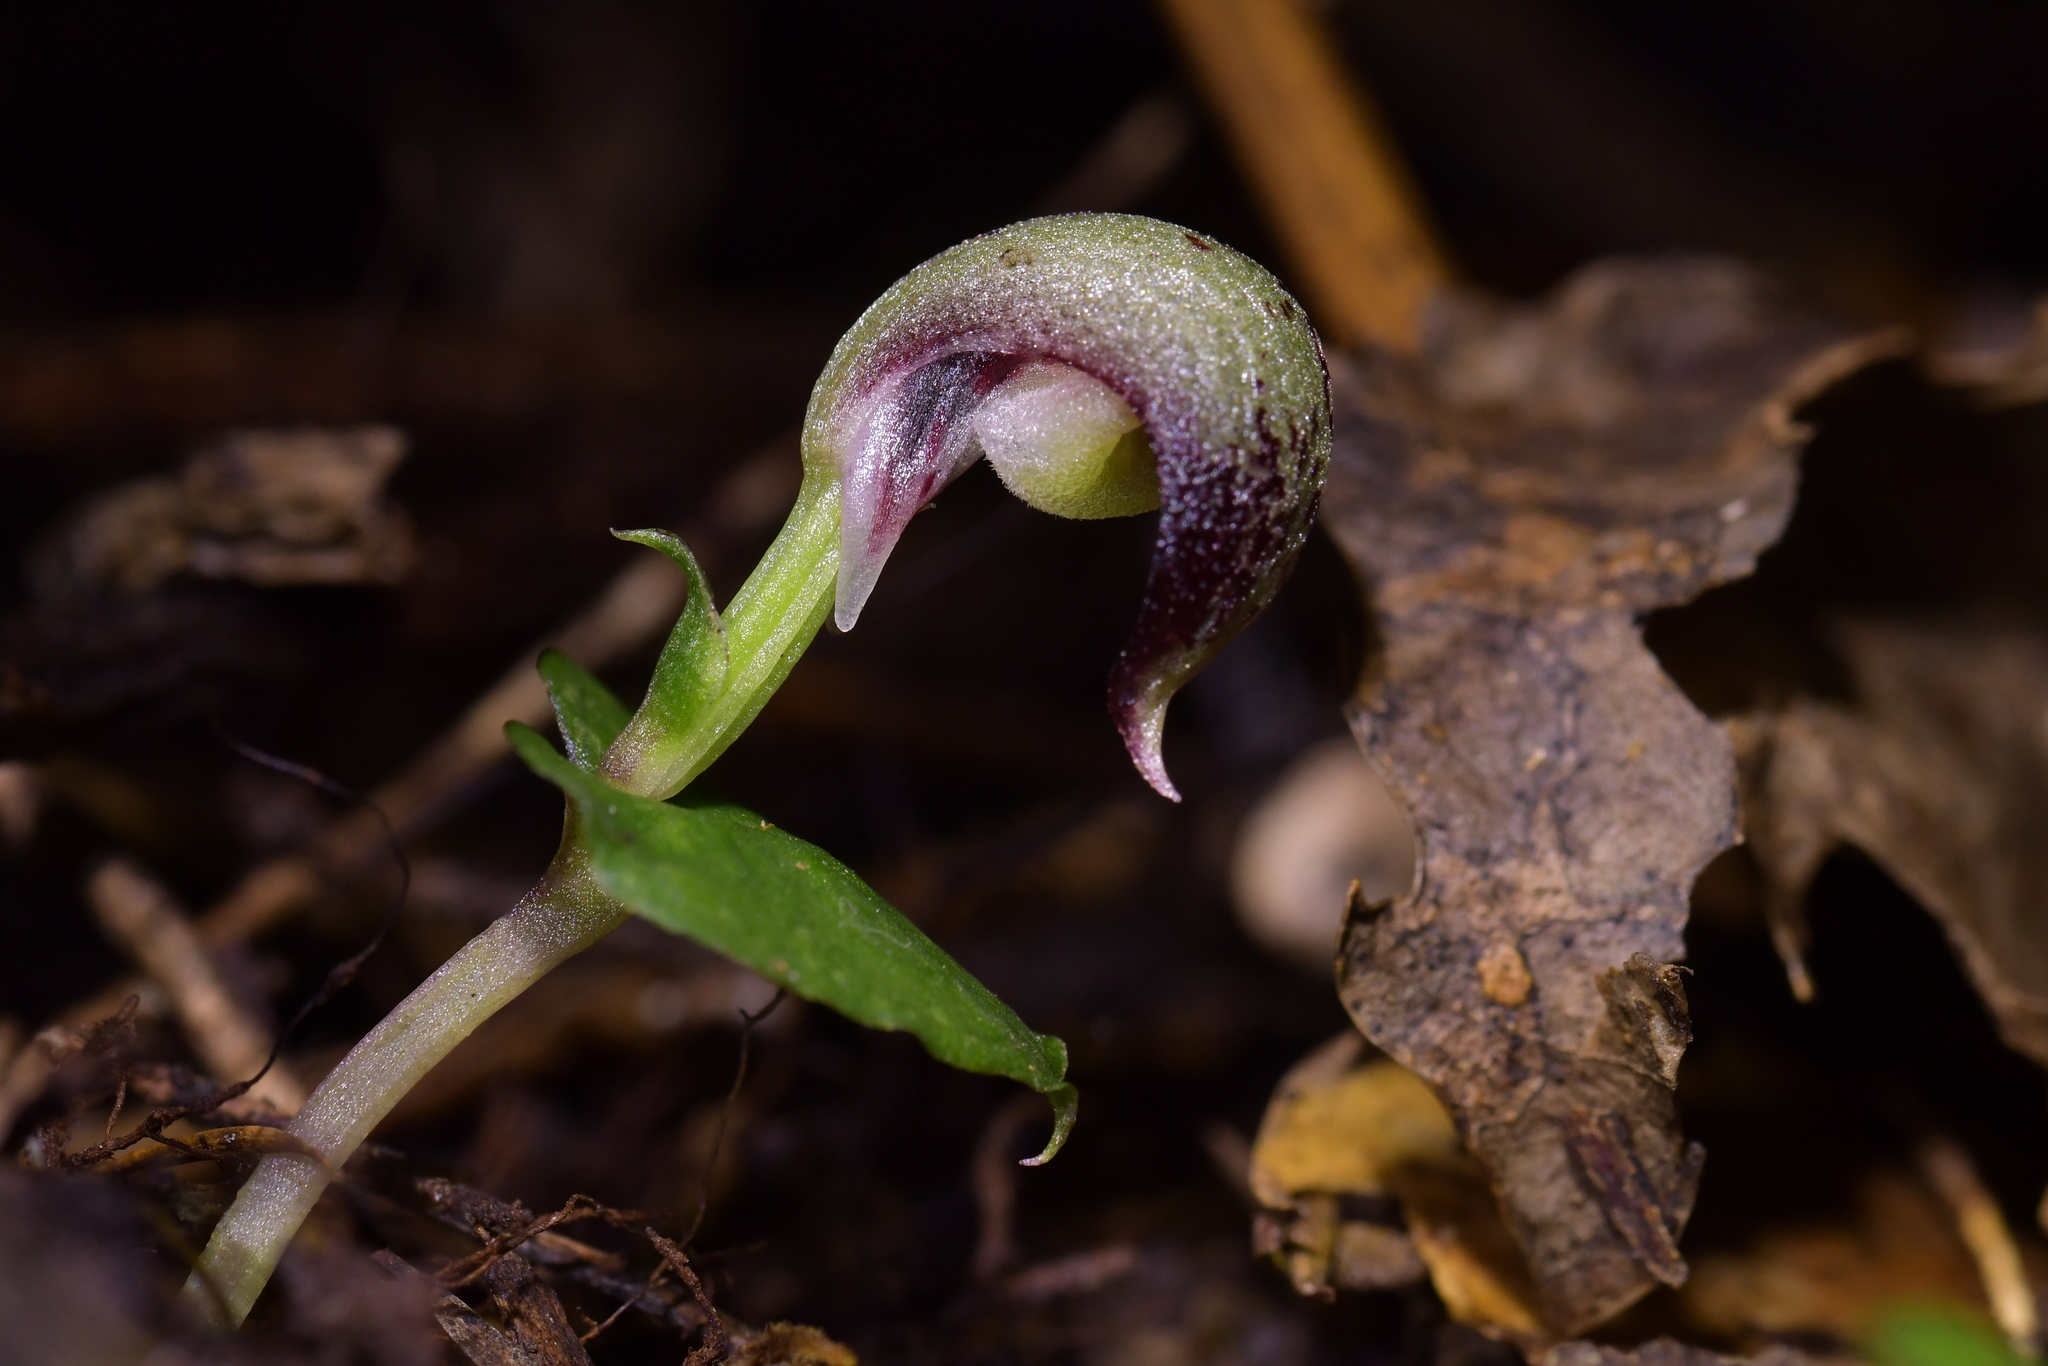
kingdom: Plantae
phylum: Tracheophyta
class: Liliopsida
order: Asparagales
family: Orchidaceae
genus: Corybas
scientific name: Corybas cheesemanii
